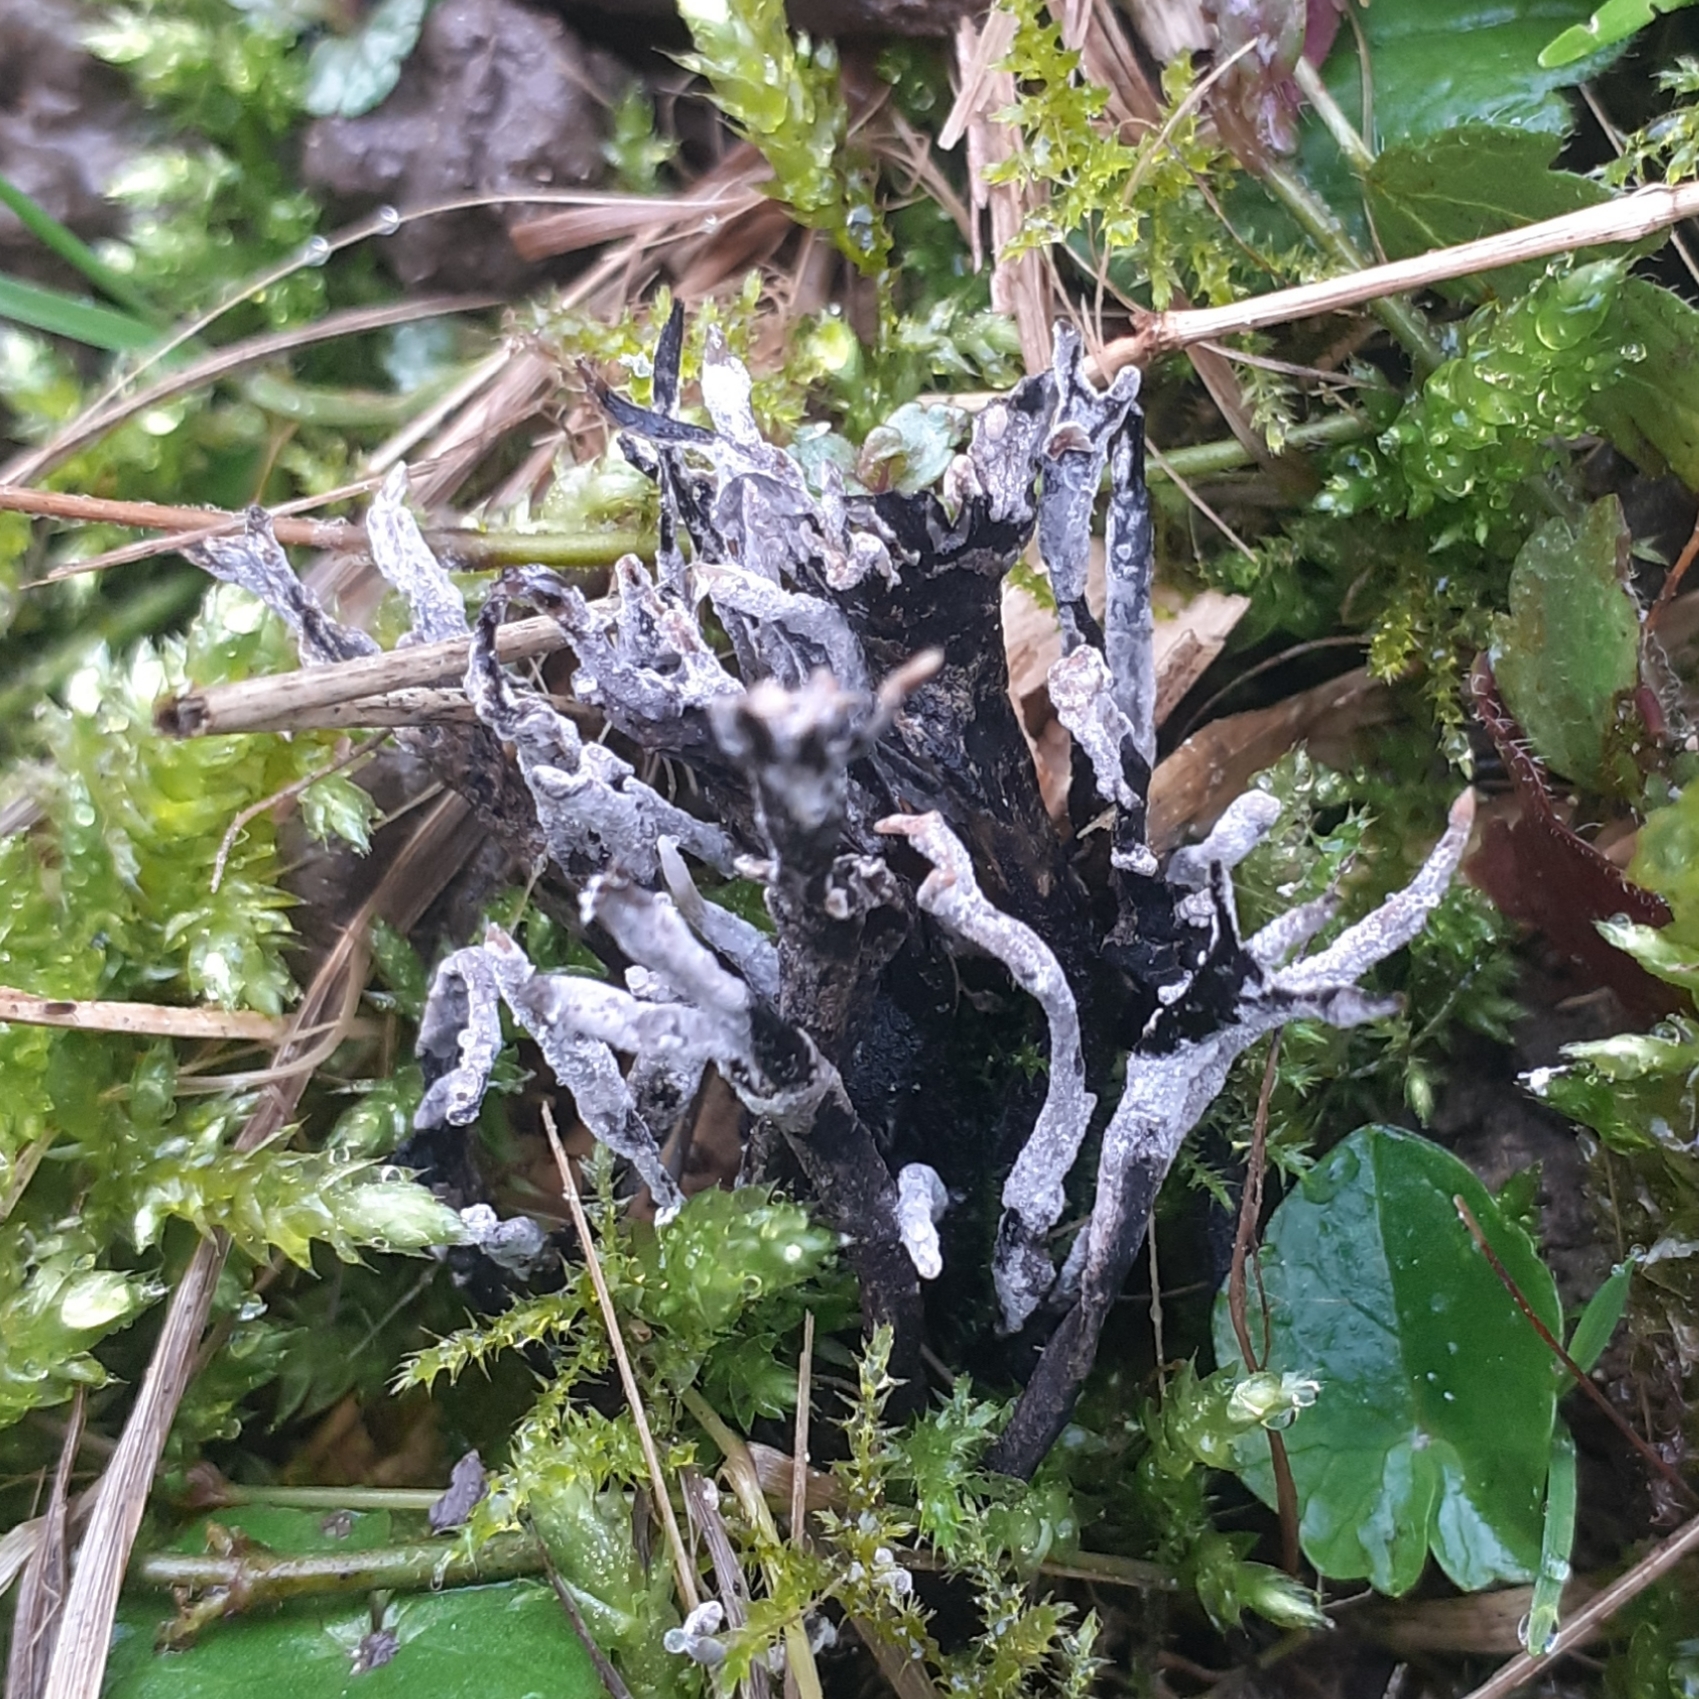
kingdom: Fungi
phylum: Ascomycota
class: Sordariomycetes
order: Xylariales
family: Xylariaceae
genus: Xylaria
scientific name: Xylaria hypoxylon
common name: Candle-snuff fungus
